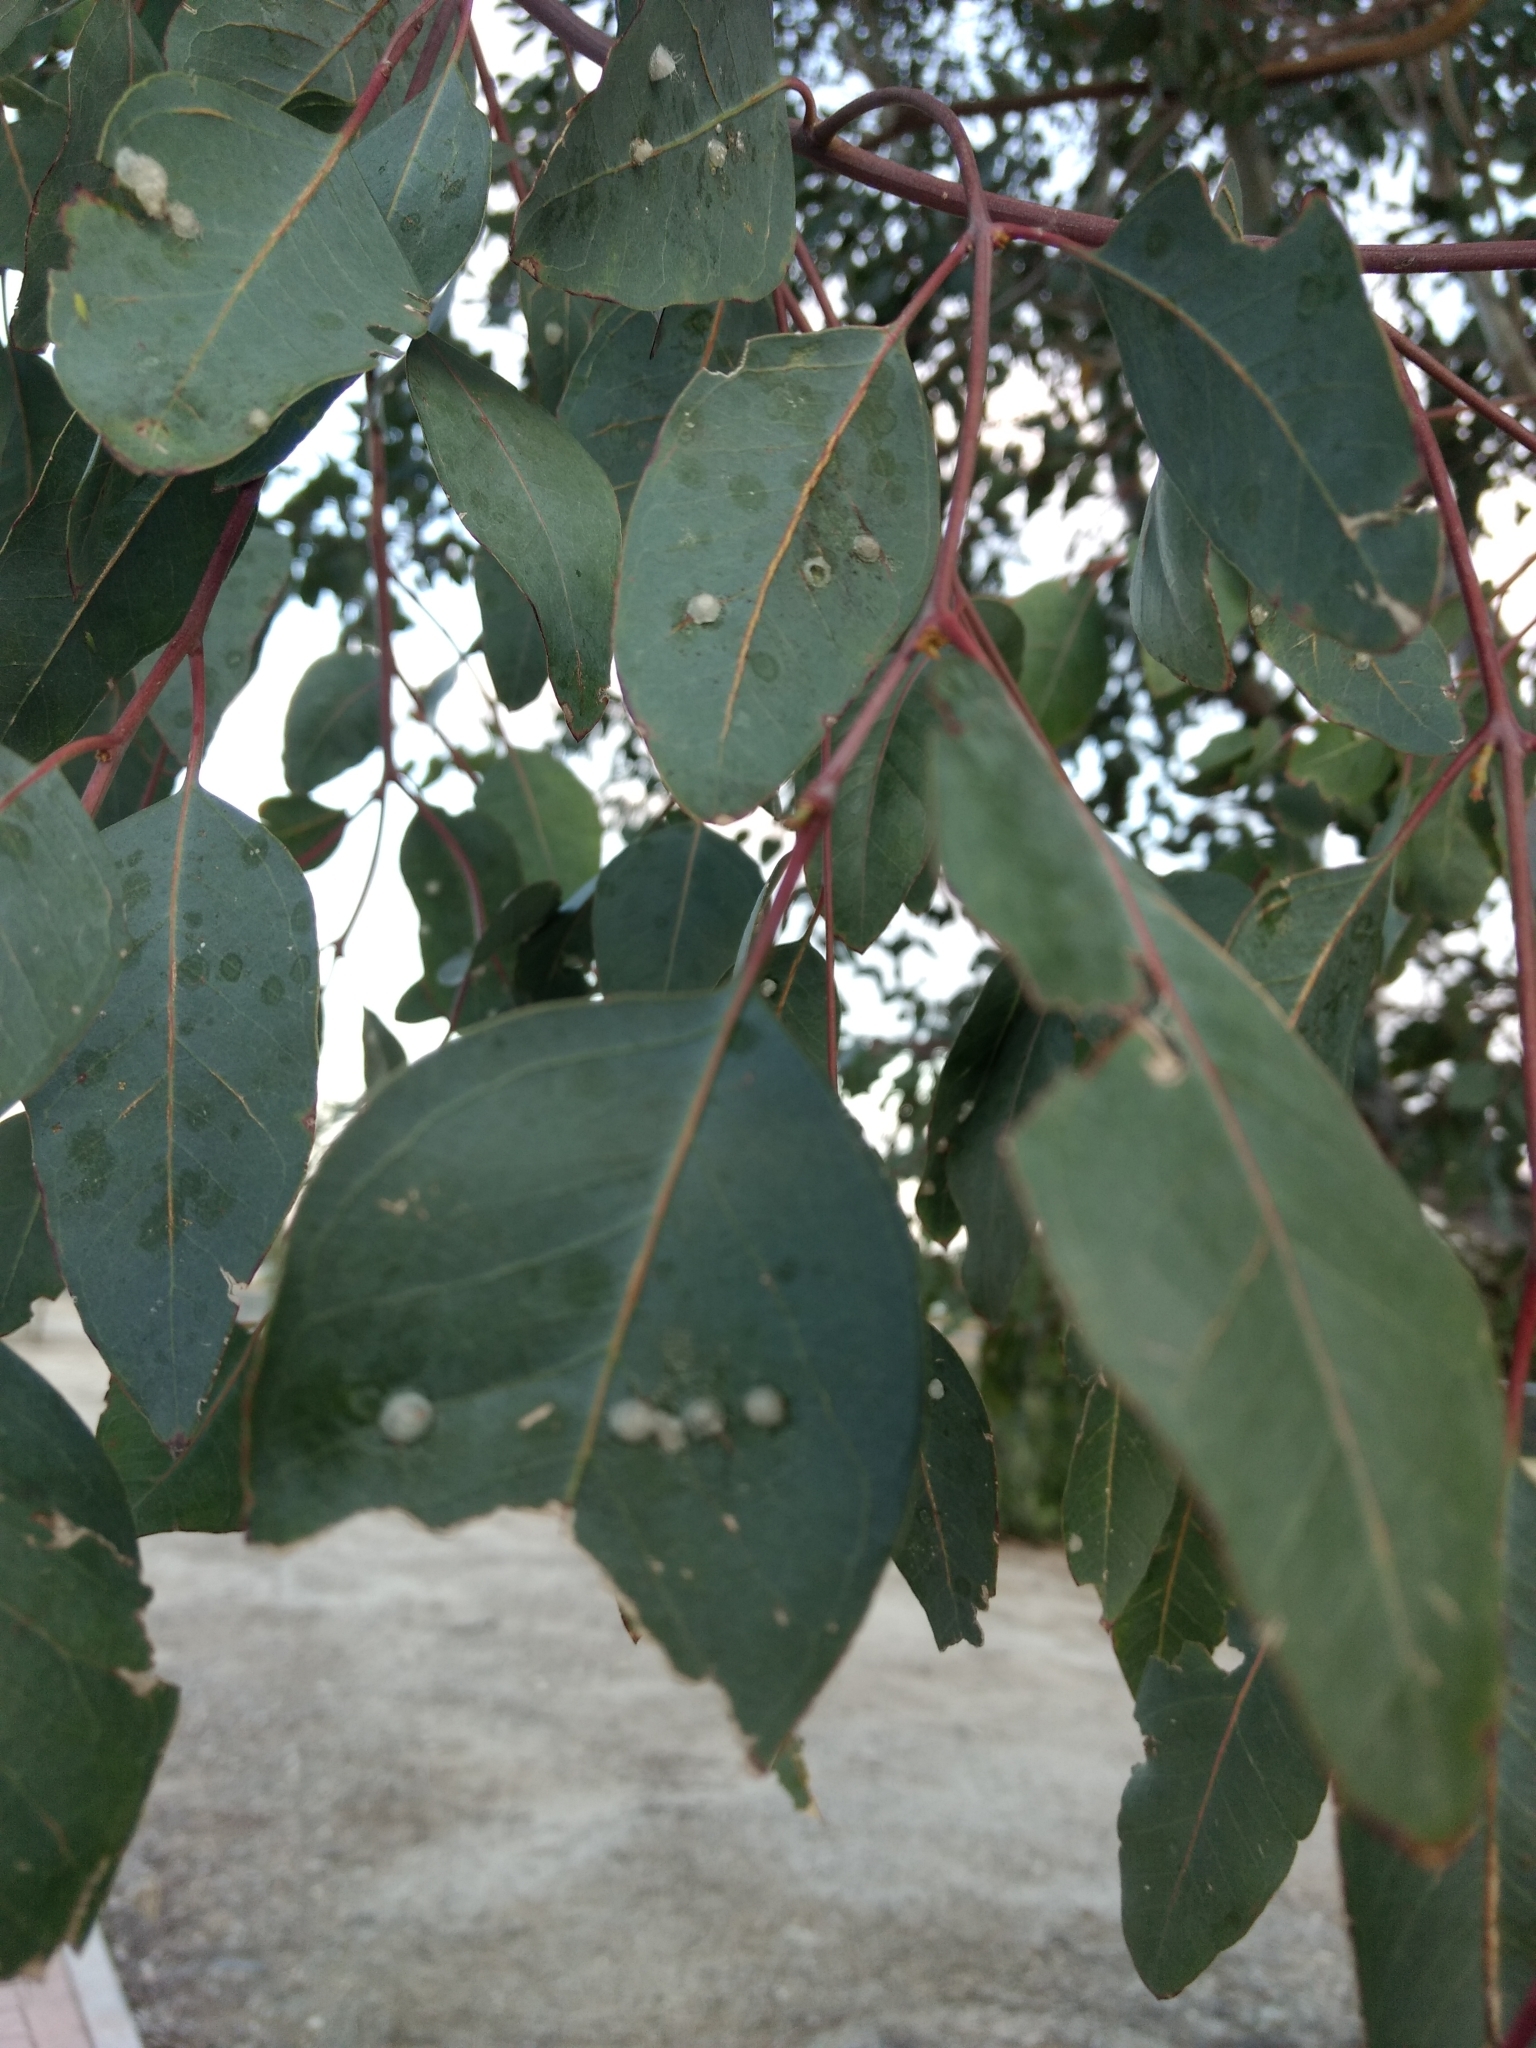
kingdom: Animalia
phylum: Arthropoda
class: Insecta
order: Hemiptera
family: Aphalaridae
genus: Glycaspis
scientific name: Glycaspis brimblecombei
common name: Red gum lerp psyllid
